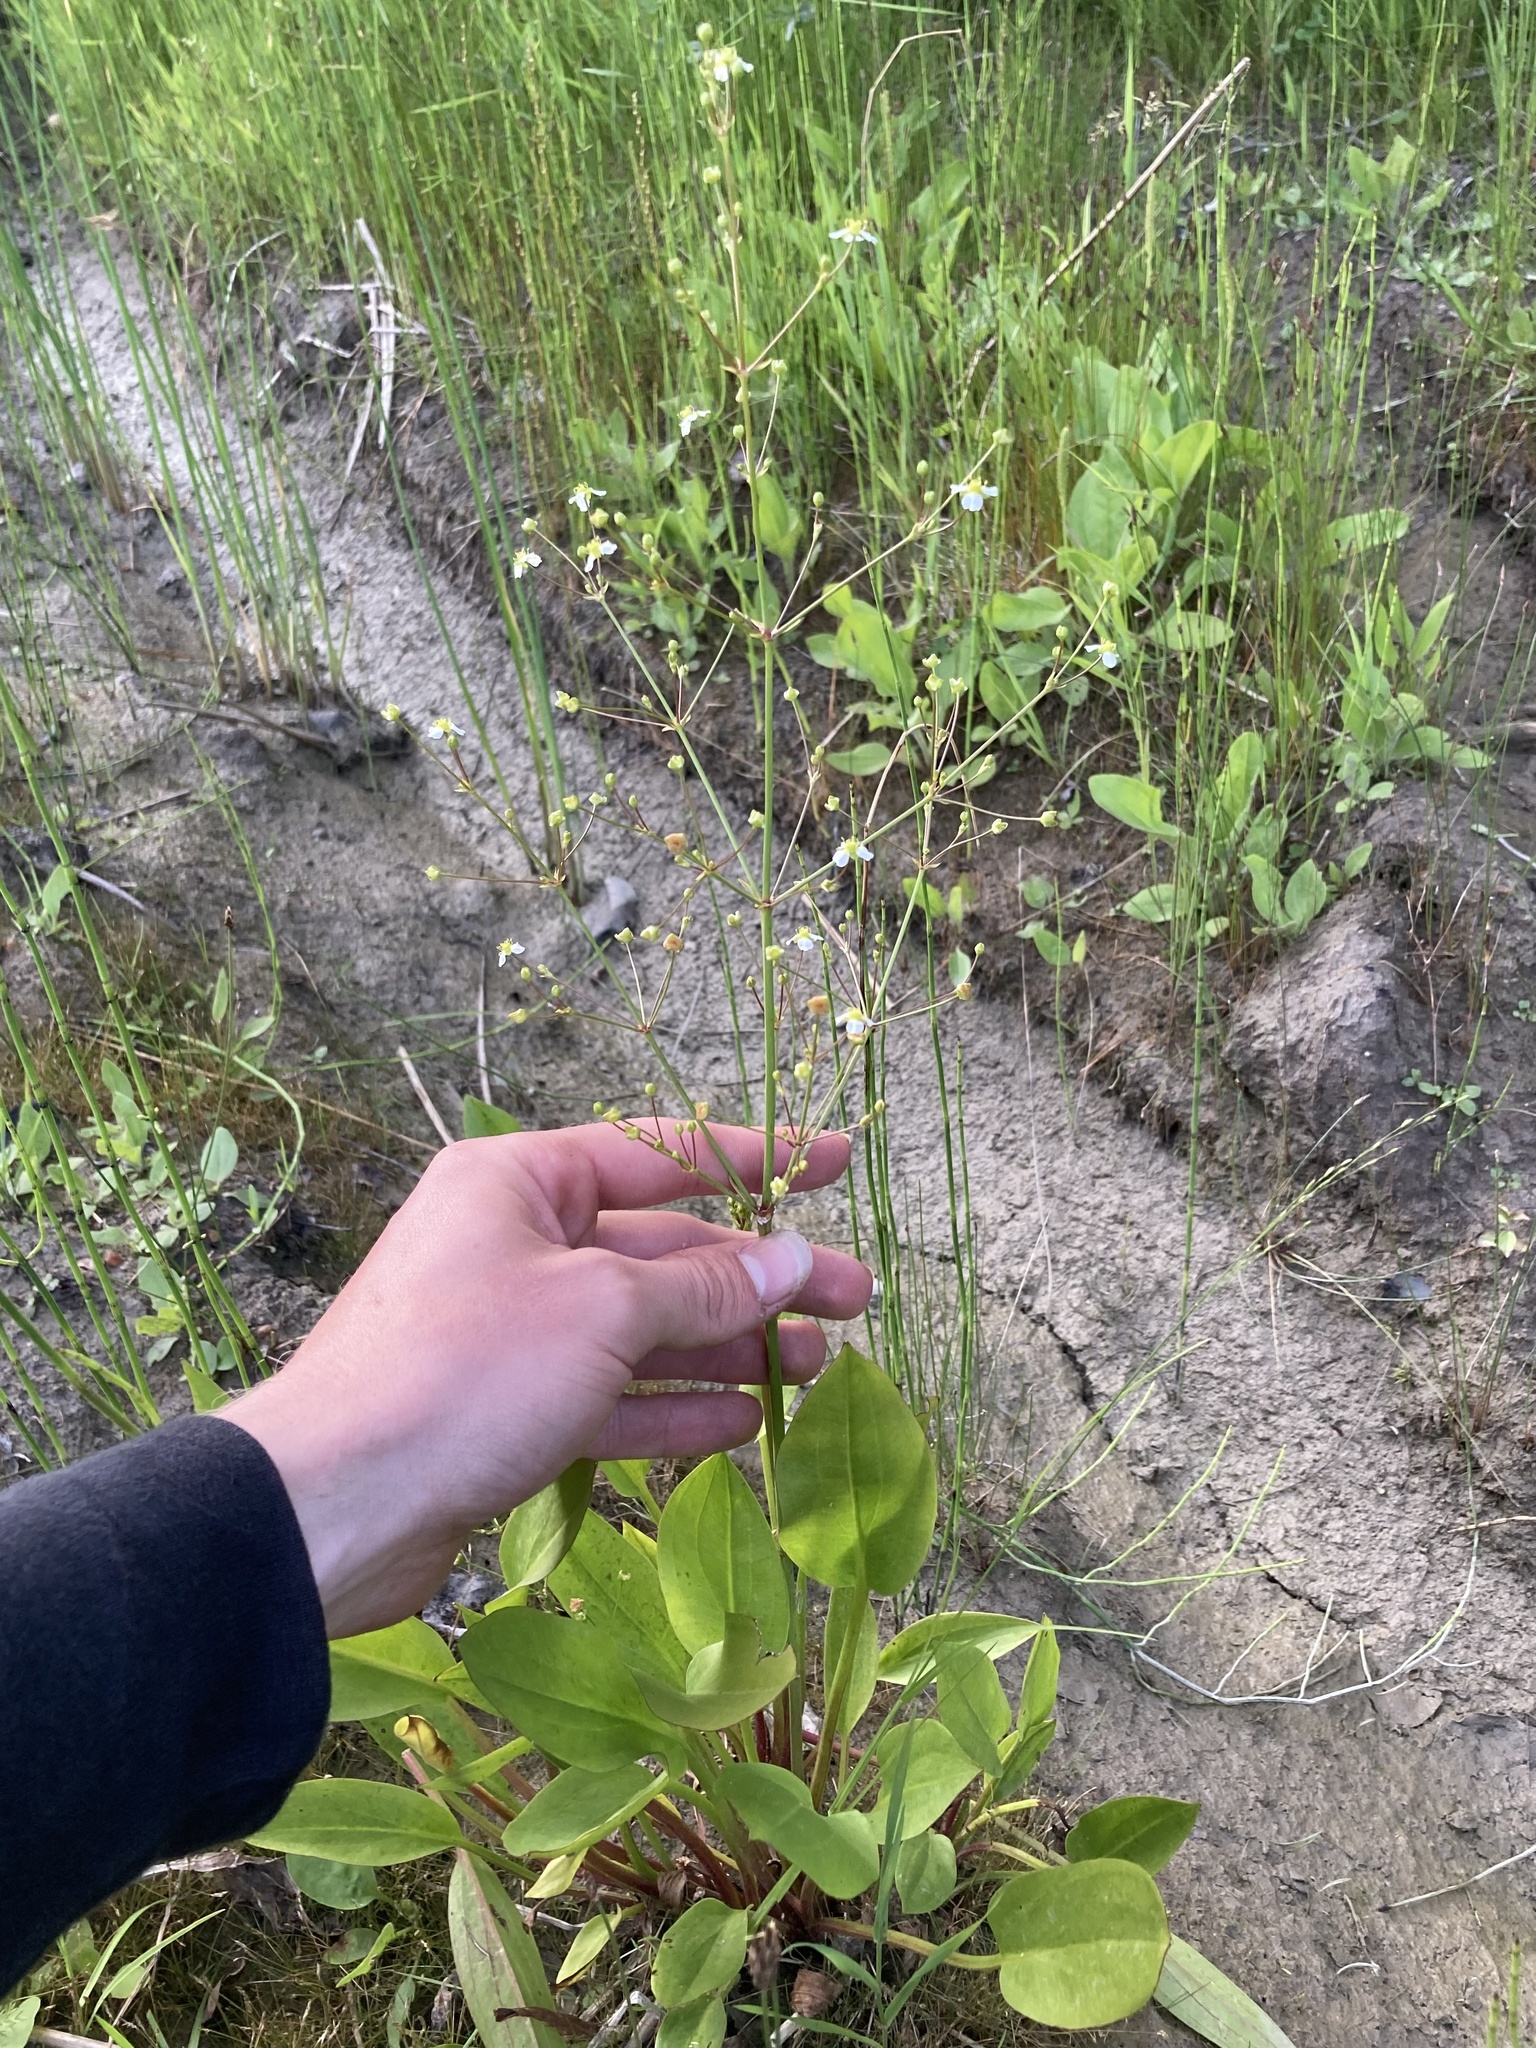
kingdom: Plantae
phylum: Tracheophyta
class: Liliopsida
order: Alismatales
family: Alismataceae
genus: Alisma
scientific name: Alisma triviale
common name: Northern water-plantain
